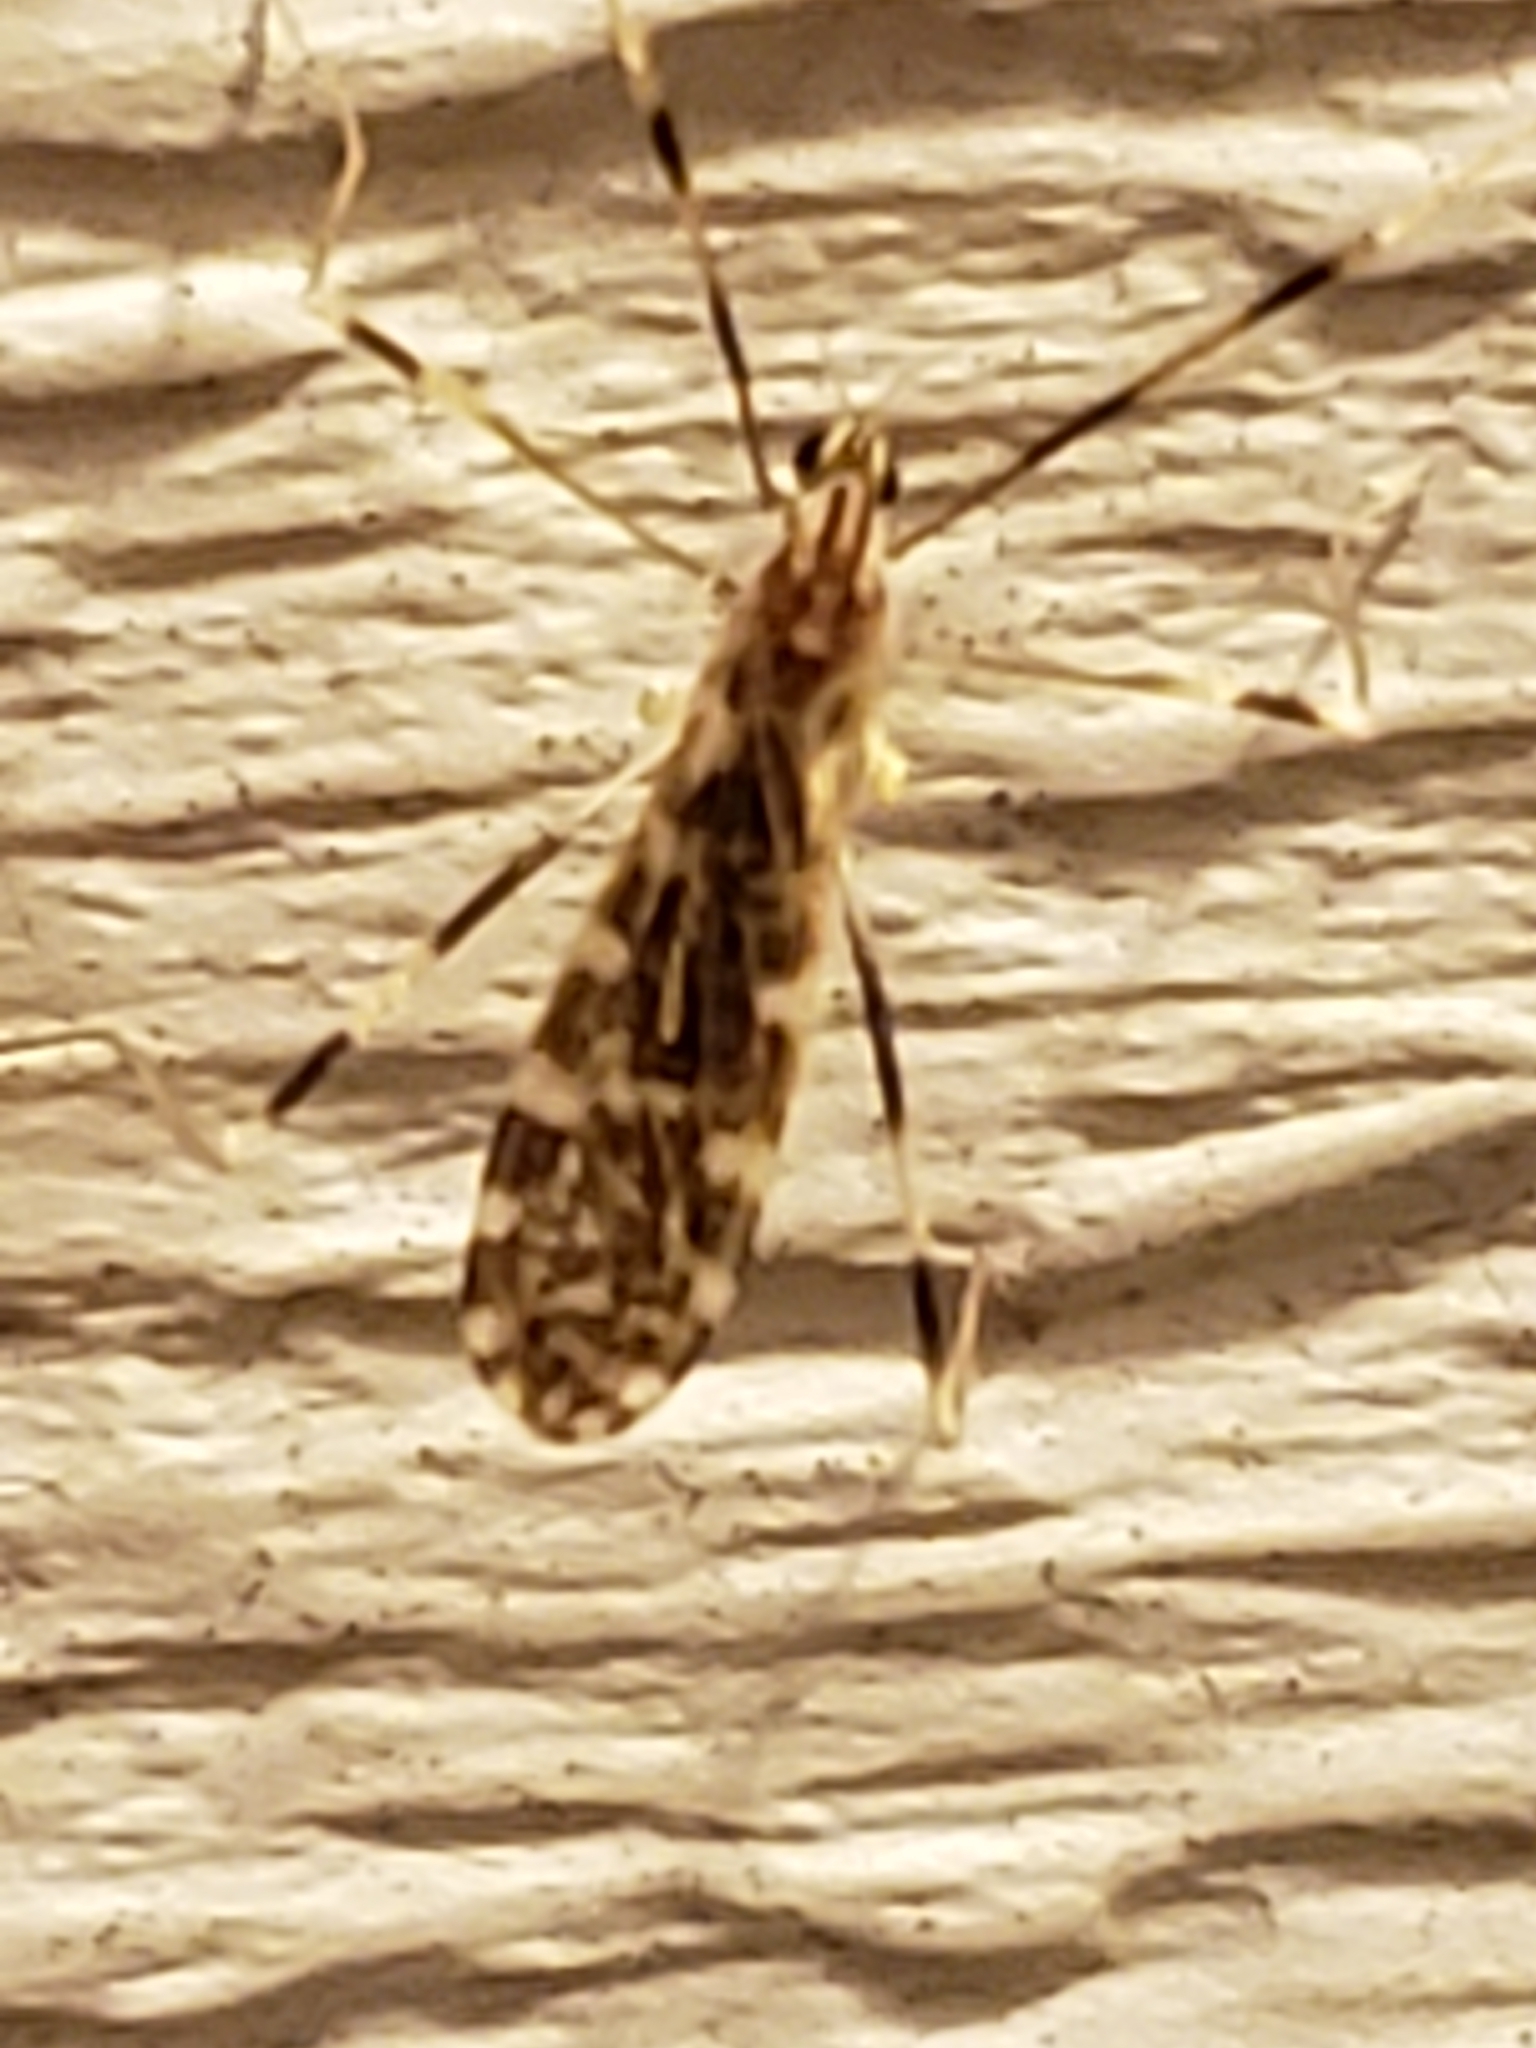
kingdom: Animalia
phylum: Arthropoda
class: Insecta
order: Diptera
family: Limoniidae
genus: Erioptera
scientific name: Erioptera caliptera
